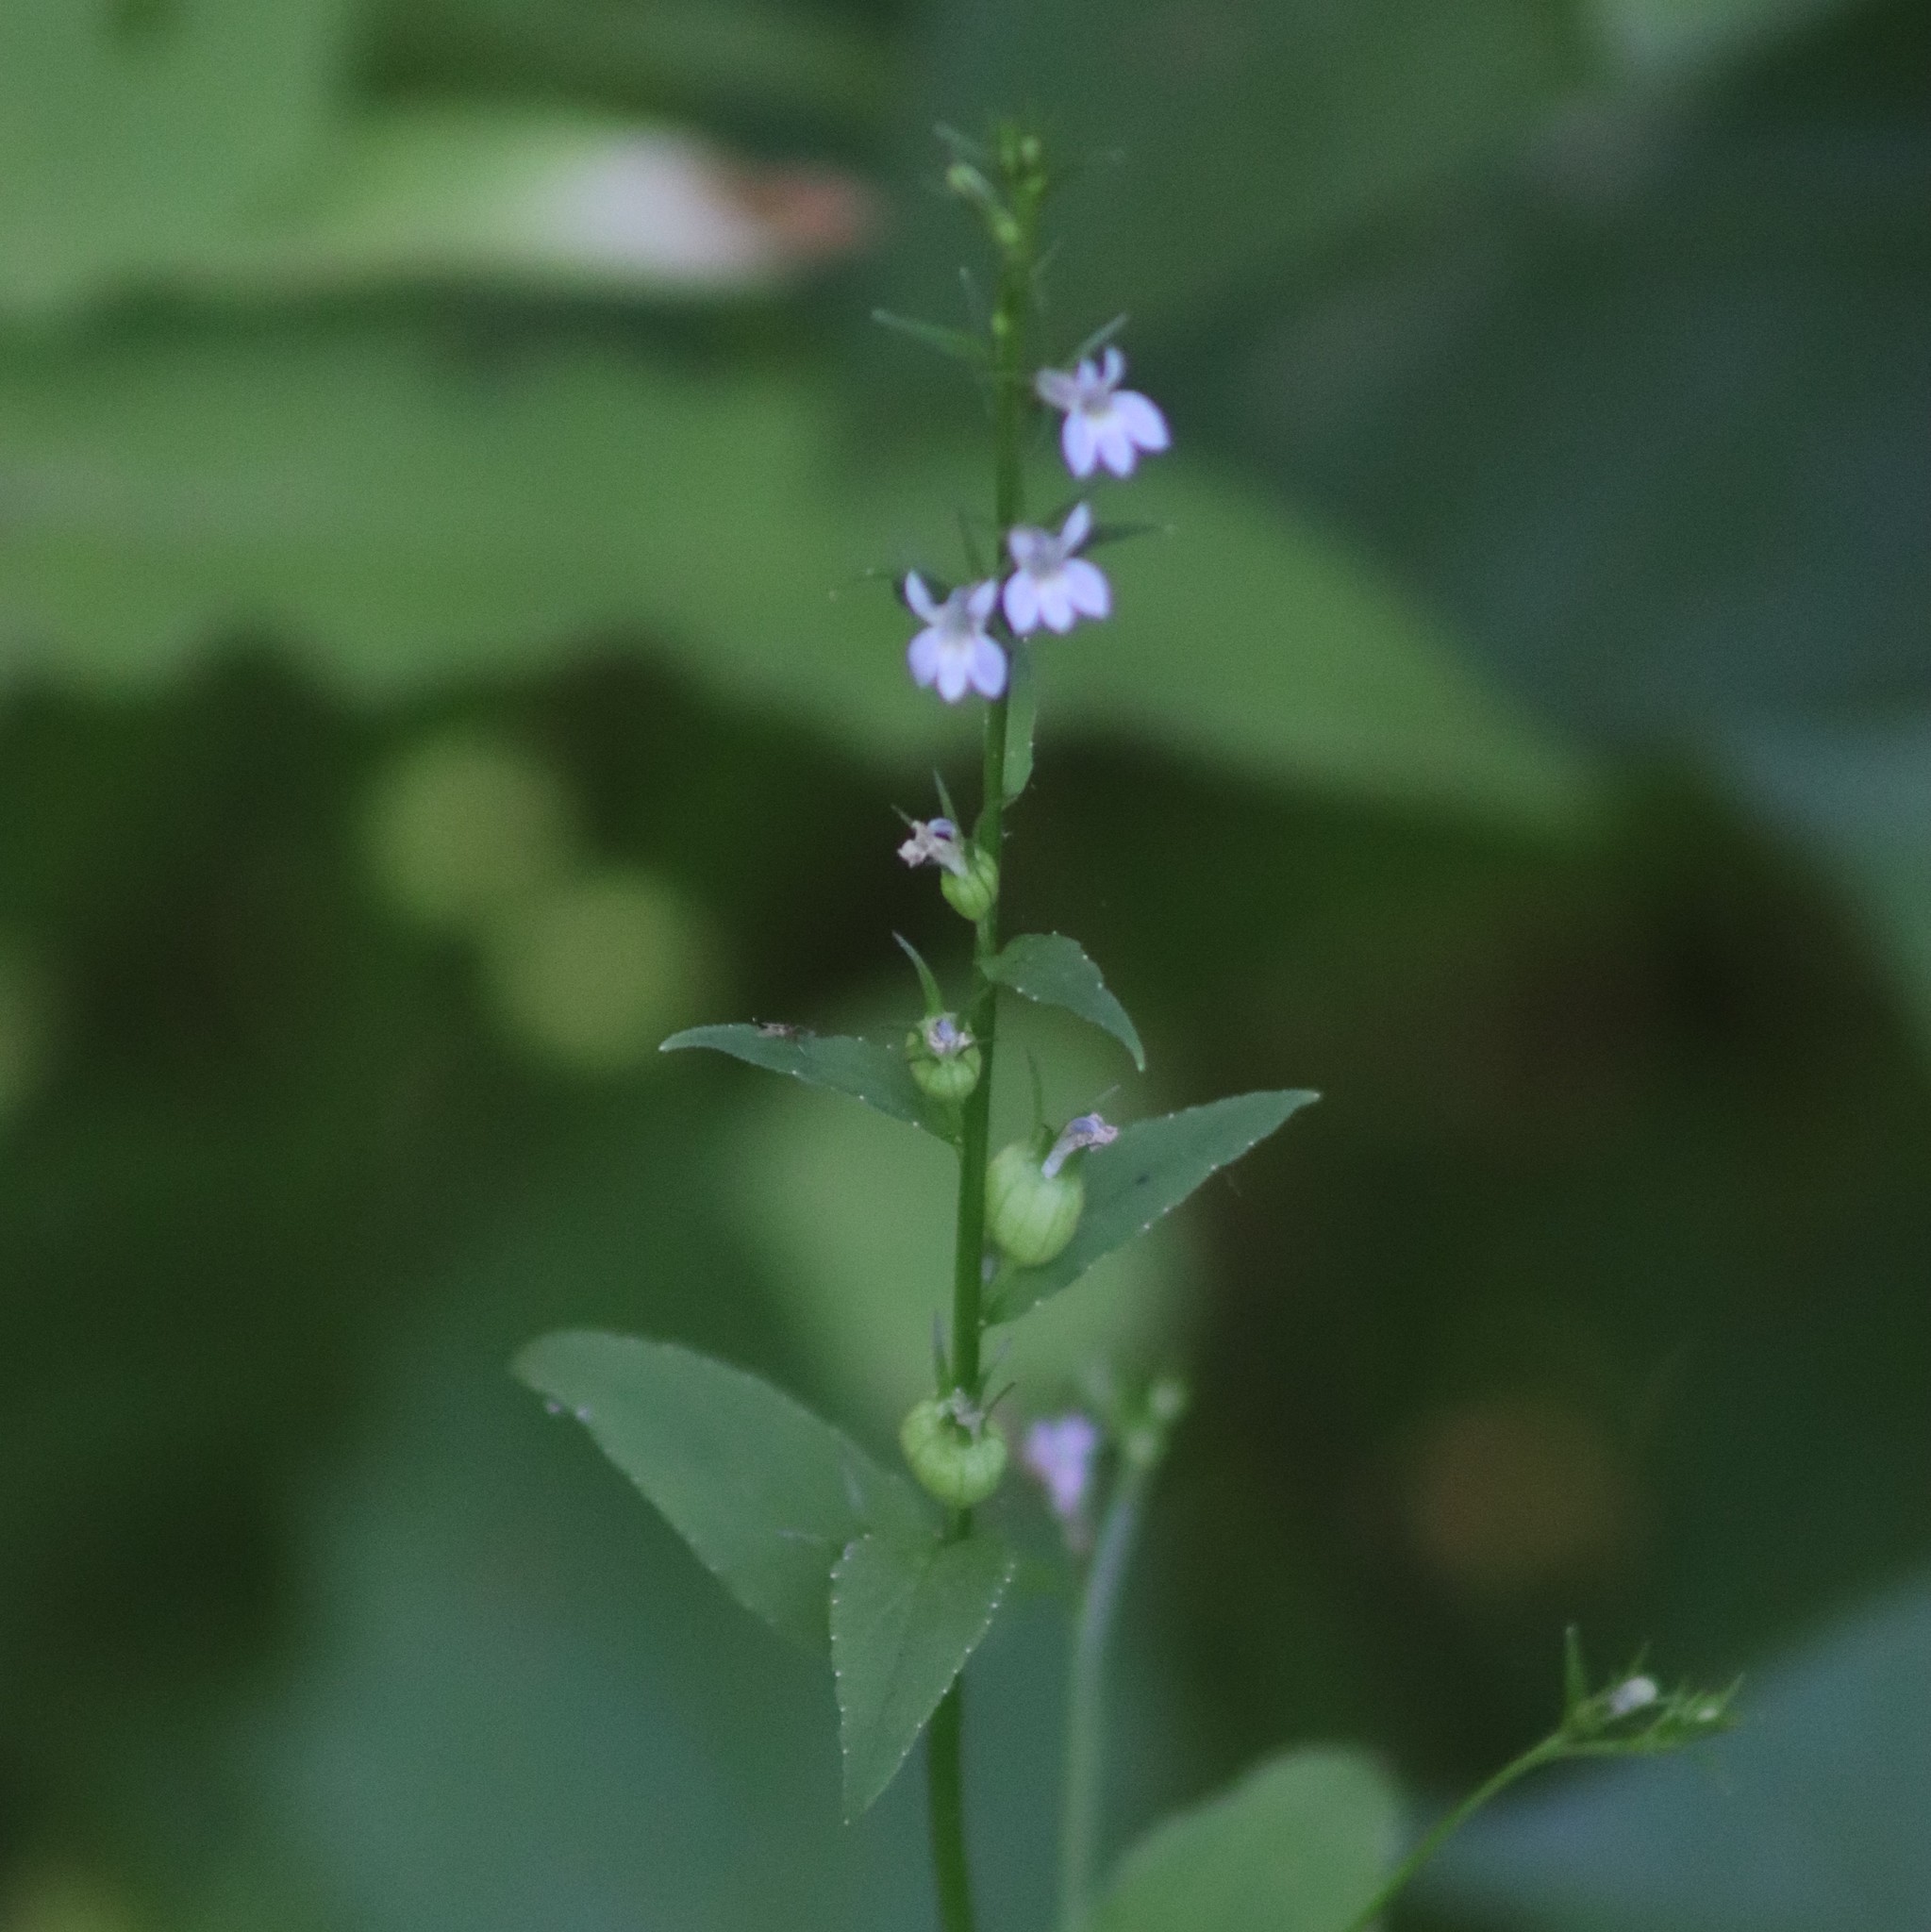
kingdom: Plantae
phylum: Tracheophyta
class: Magnoliopsida
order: Asterales
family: Campanulaceae
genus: Lobelia
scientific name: Lobelia inflata
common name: Indian tobacco
